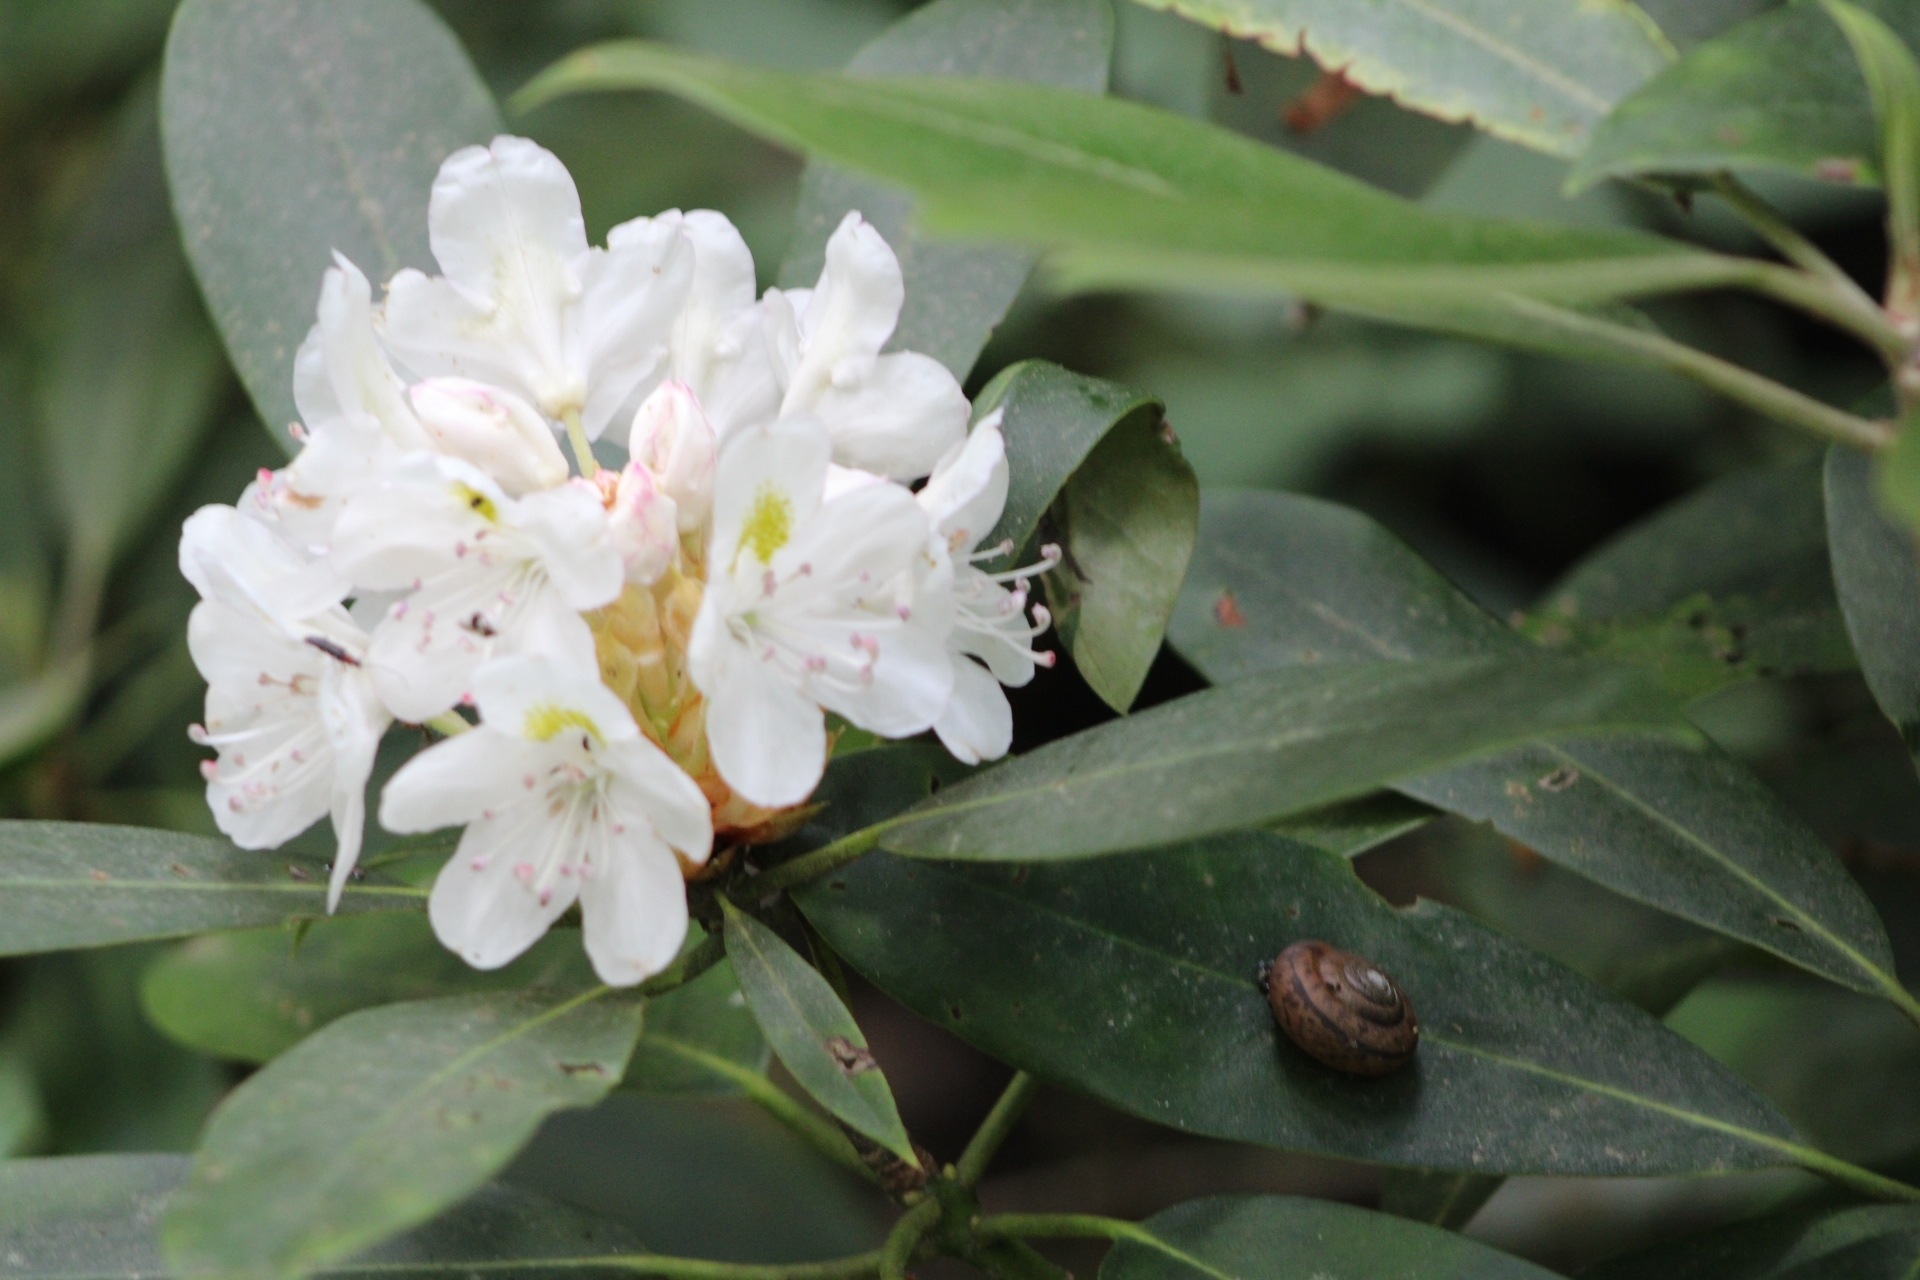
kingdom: Plantae
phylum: Tracheophyta
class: Magnoliopsida
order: Ericales
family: Ericaceae
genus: Rhododendron
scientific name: Rhododendron maximum
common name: Great rhododendron
